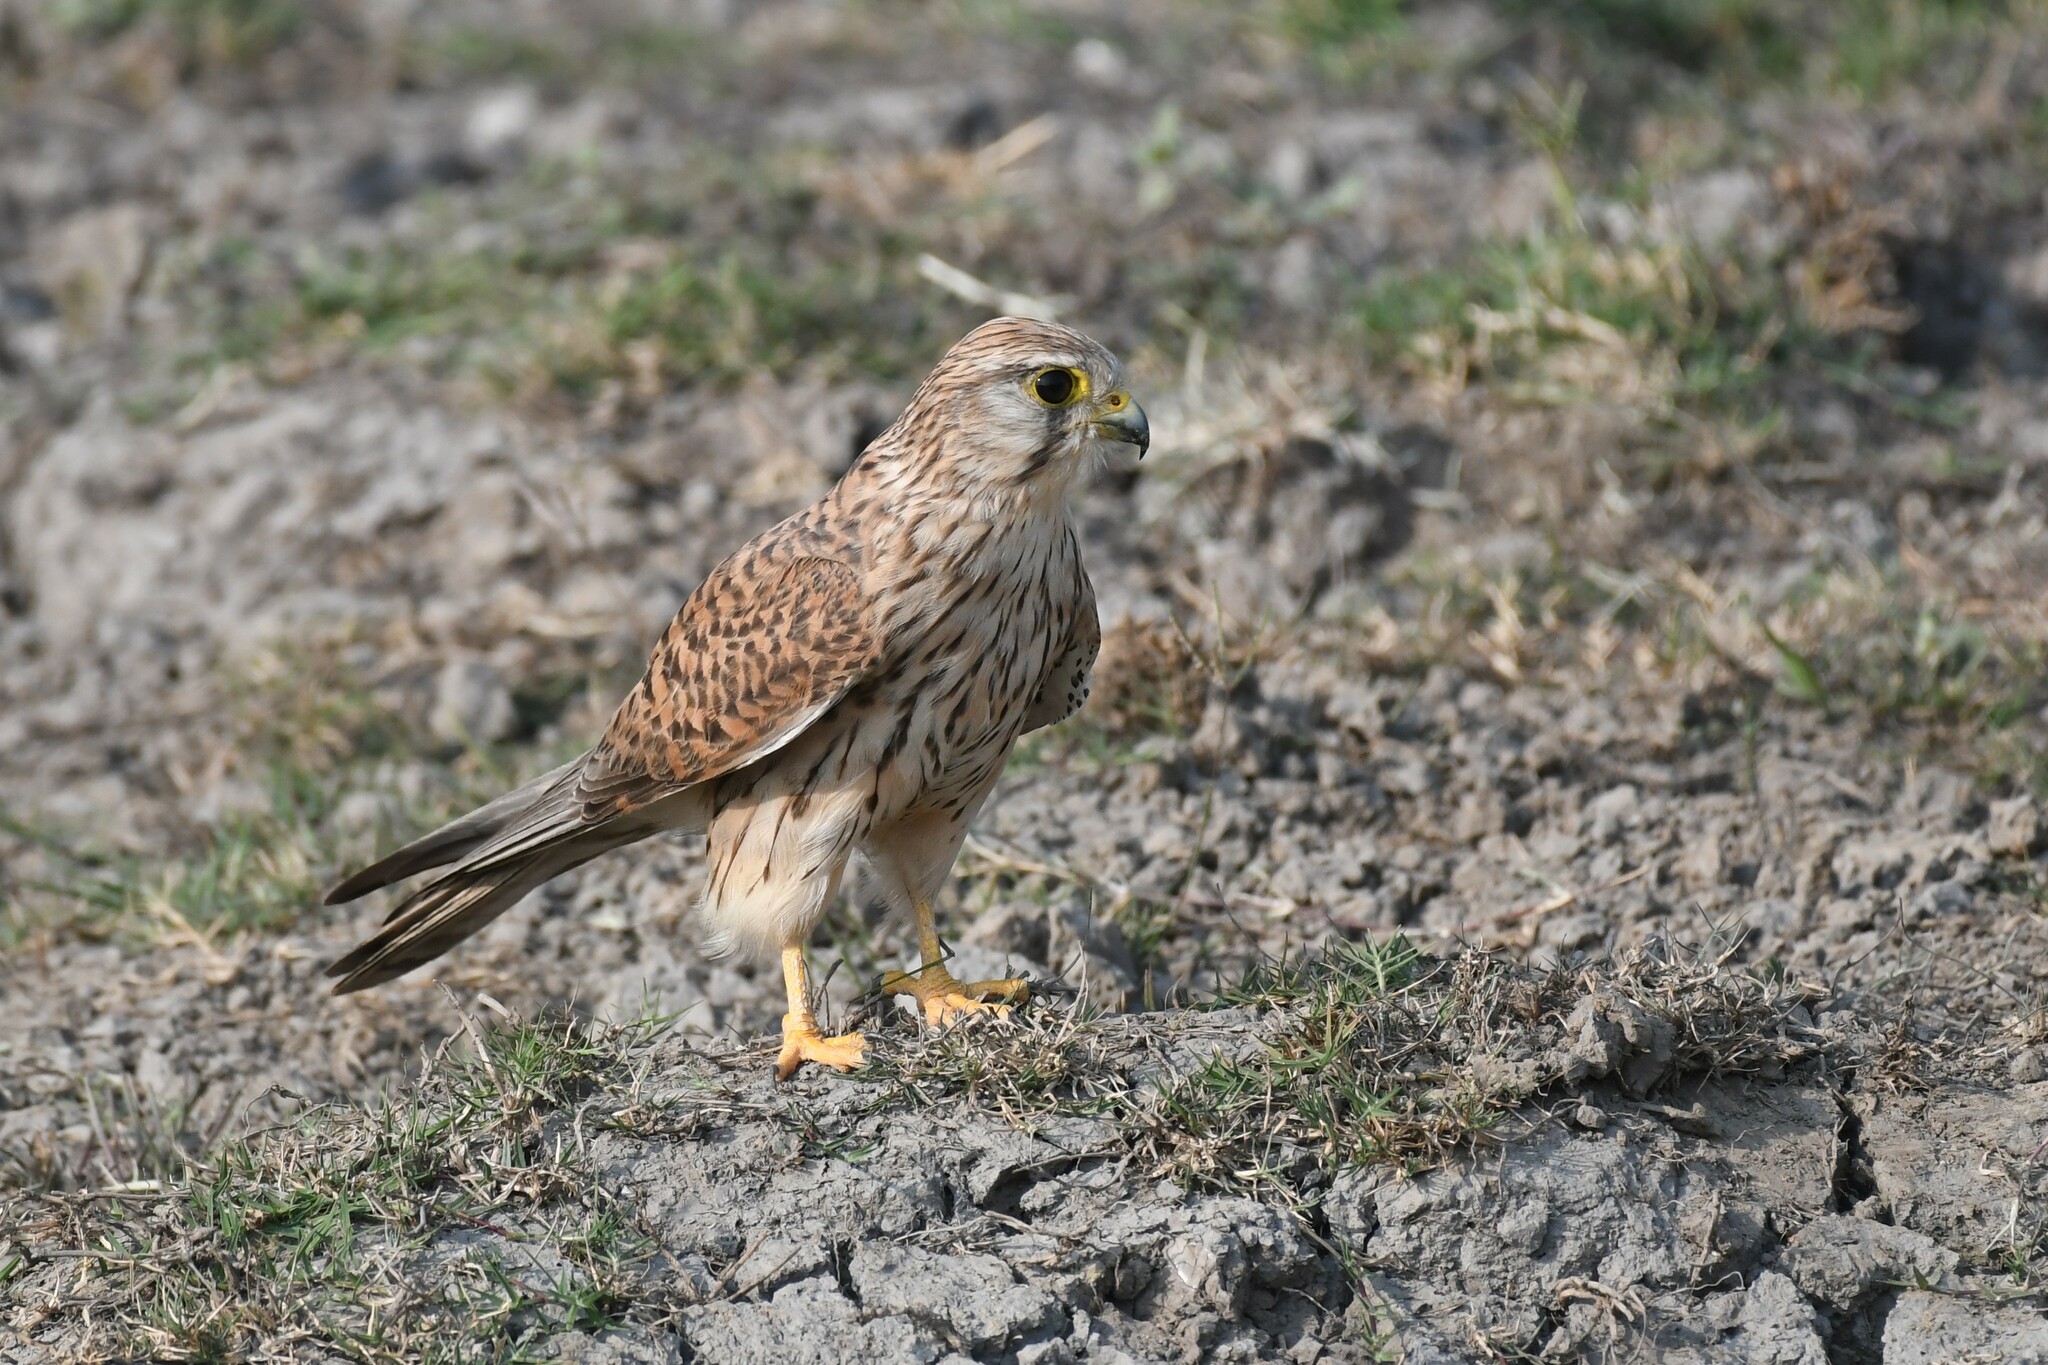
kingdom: Animalia
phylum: Chordata
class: Aves
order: Falconiformes
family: Falconidae
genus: Falco
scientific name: Falco tinnunculus
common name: Common kestrel
